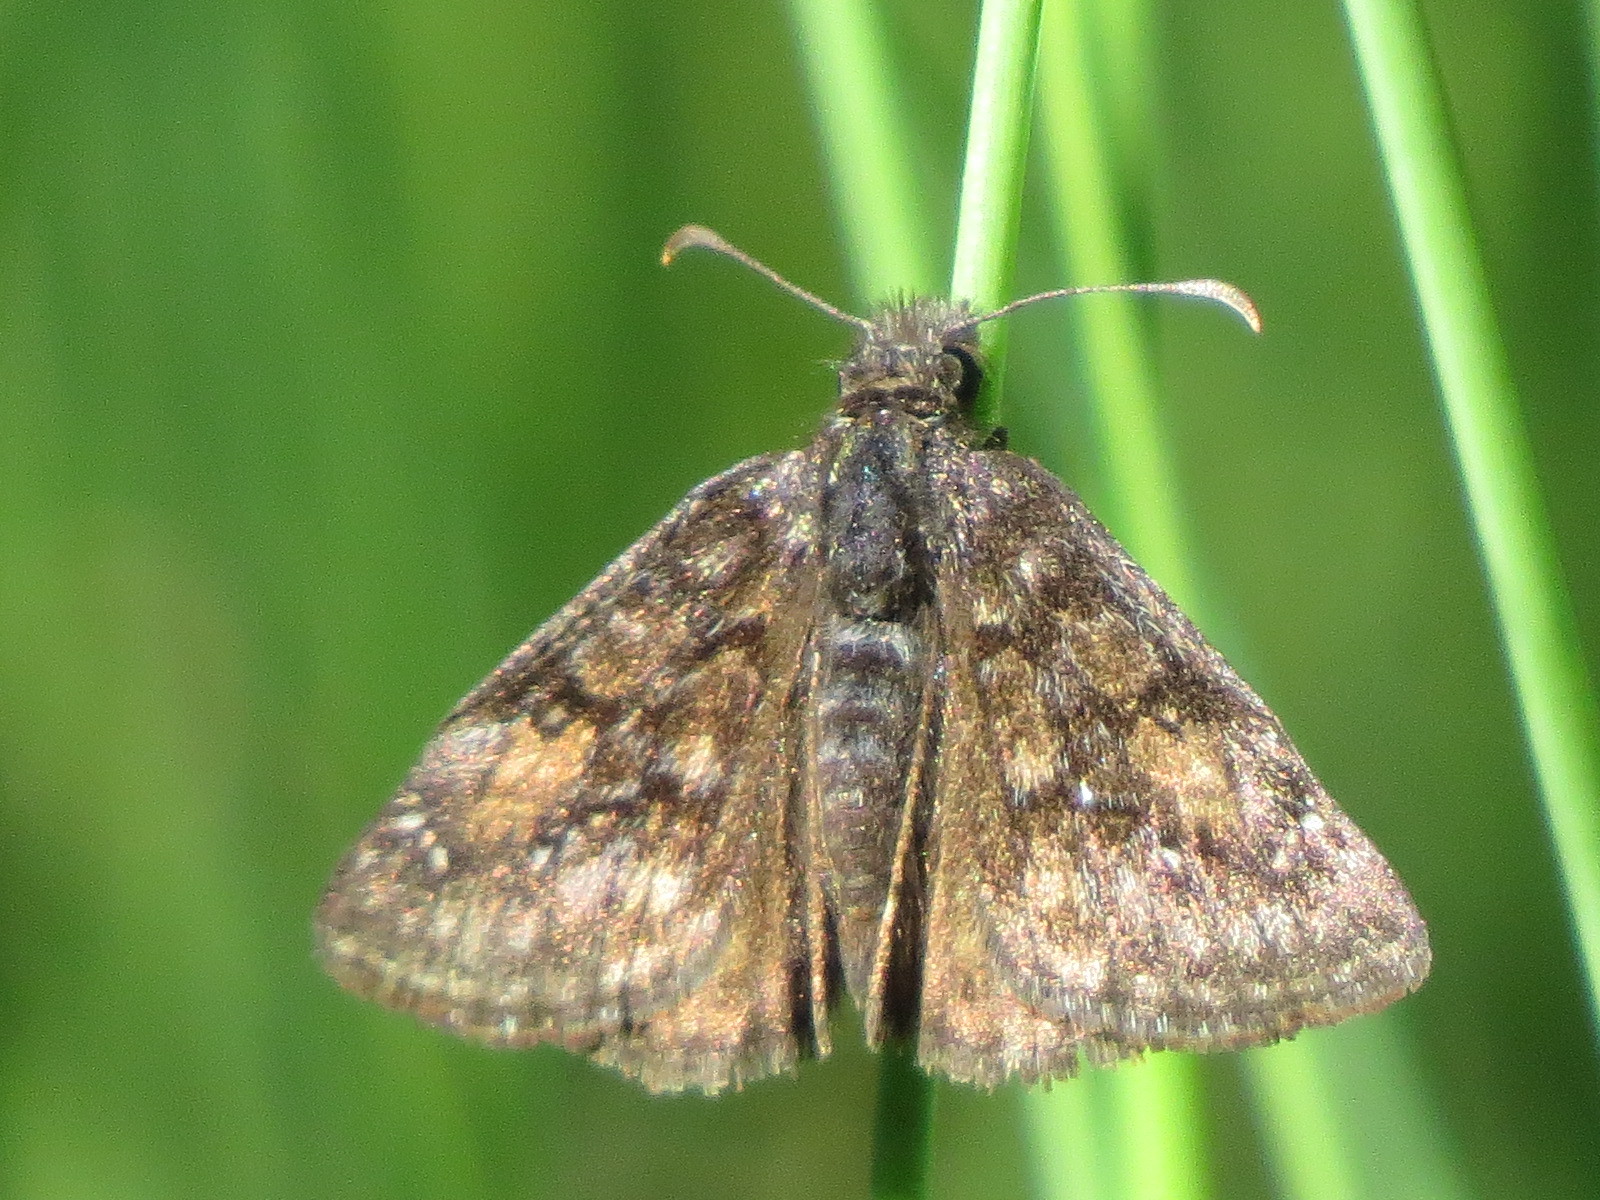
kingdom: Animalia
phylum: Arthropoda
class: Insecta
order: Lepidoptera
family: Hesperiidae
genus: Erynnis
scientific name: Erynnis propertius
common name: Propertius duskywing
